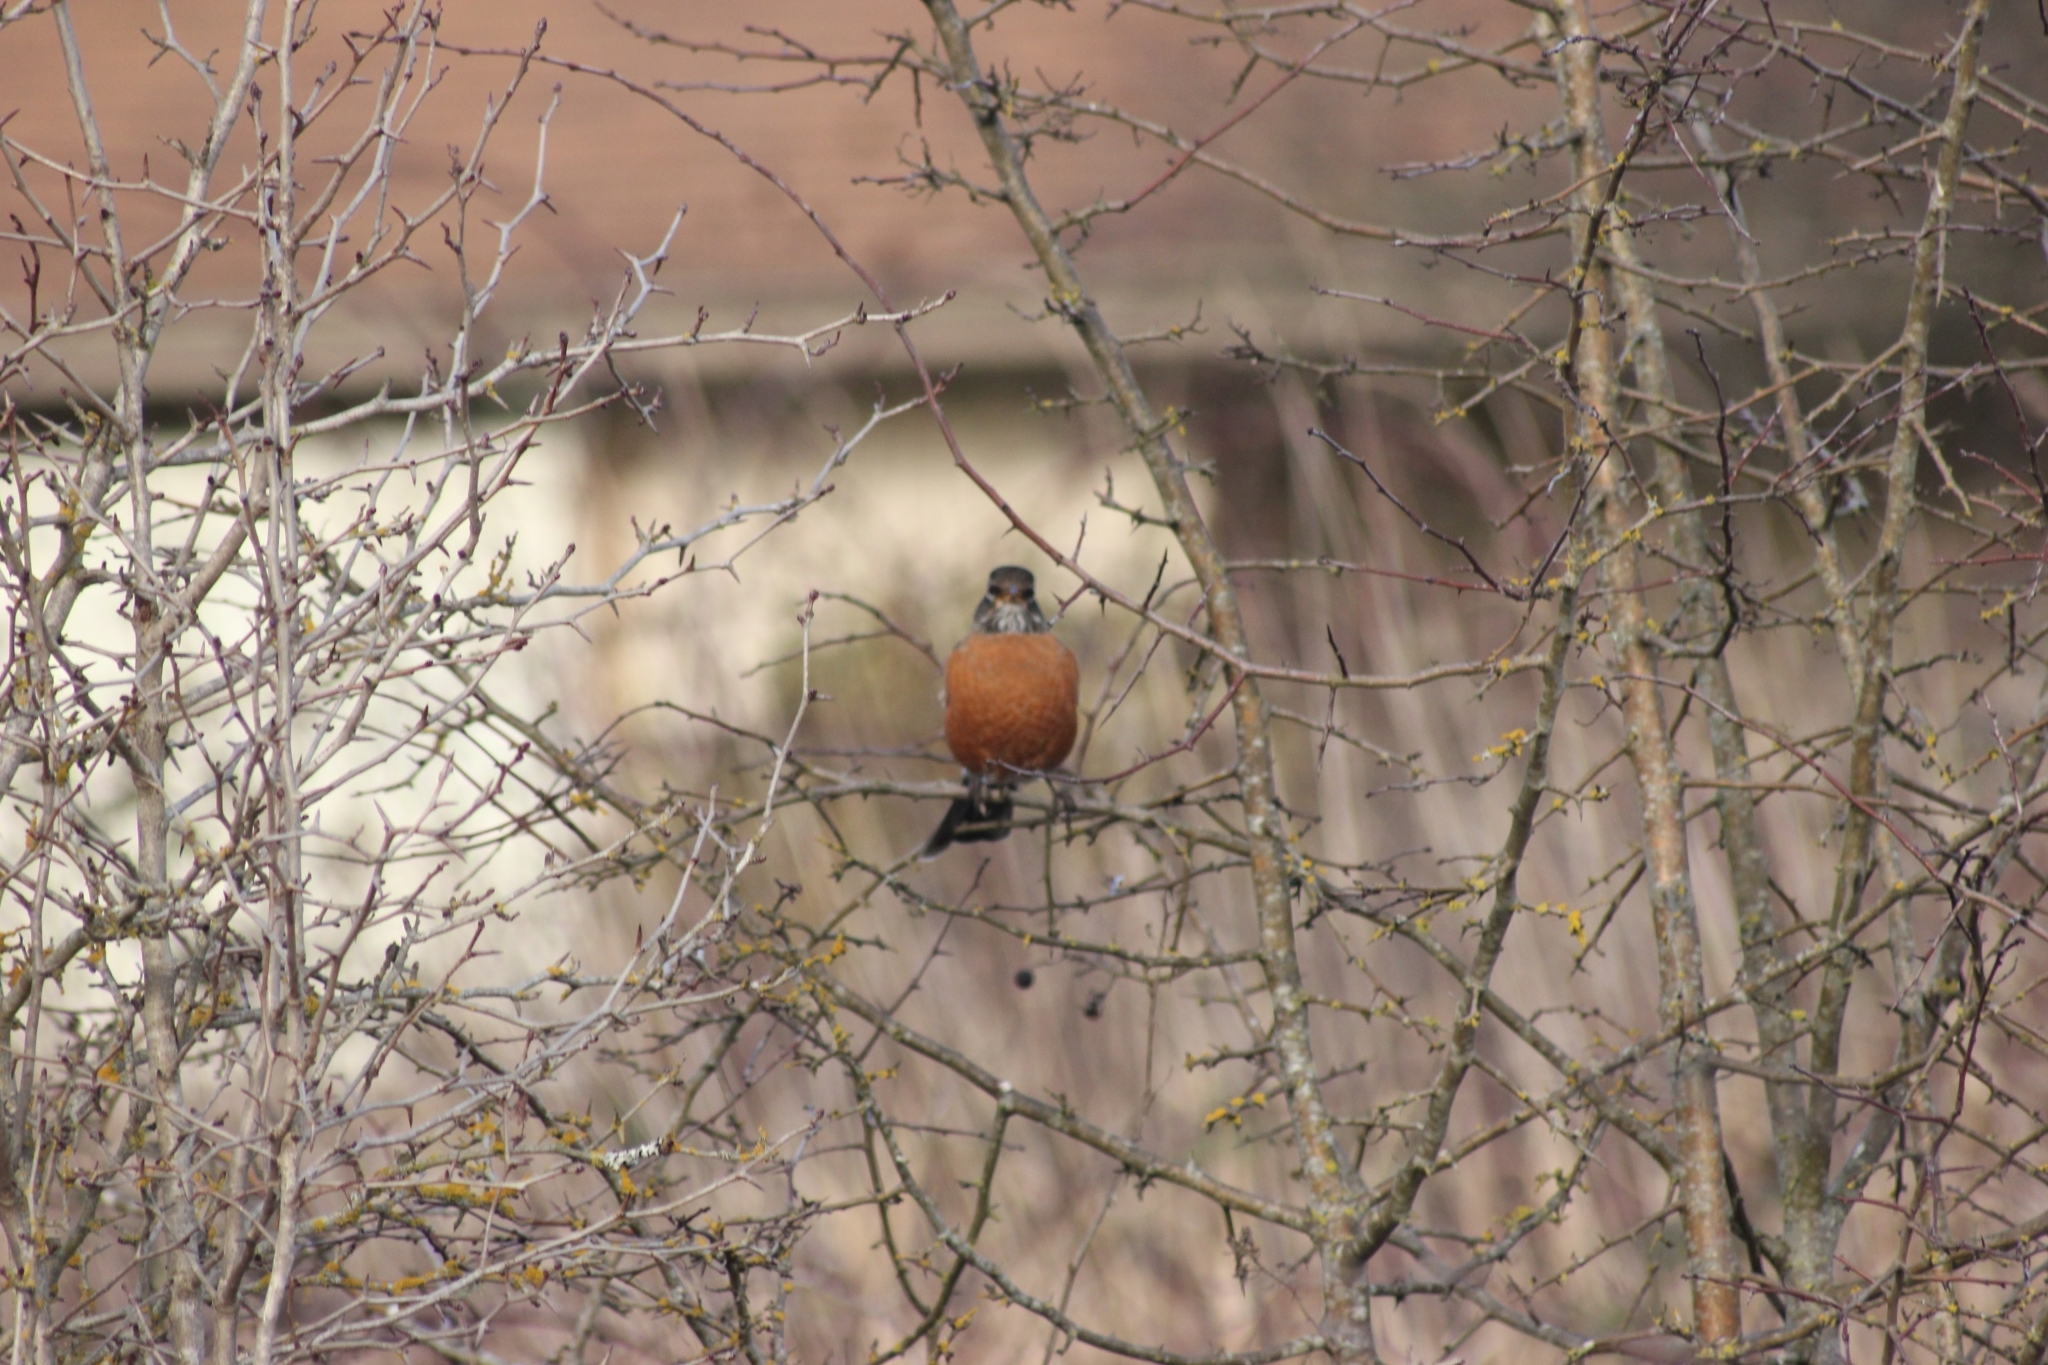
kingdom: Animalia
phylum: Chordata
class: Aves
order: Passeriformes
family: Turdidae
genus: Turdus
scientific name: Turdus migratorius
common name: American robin
